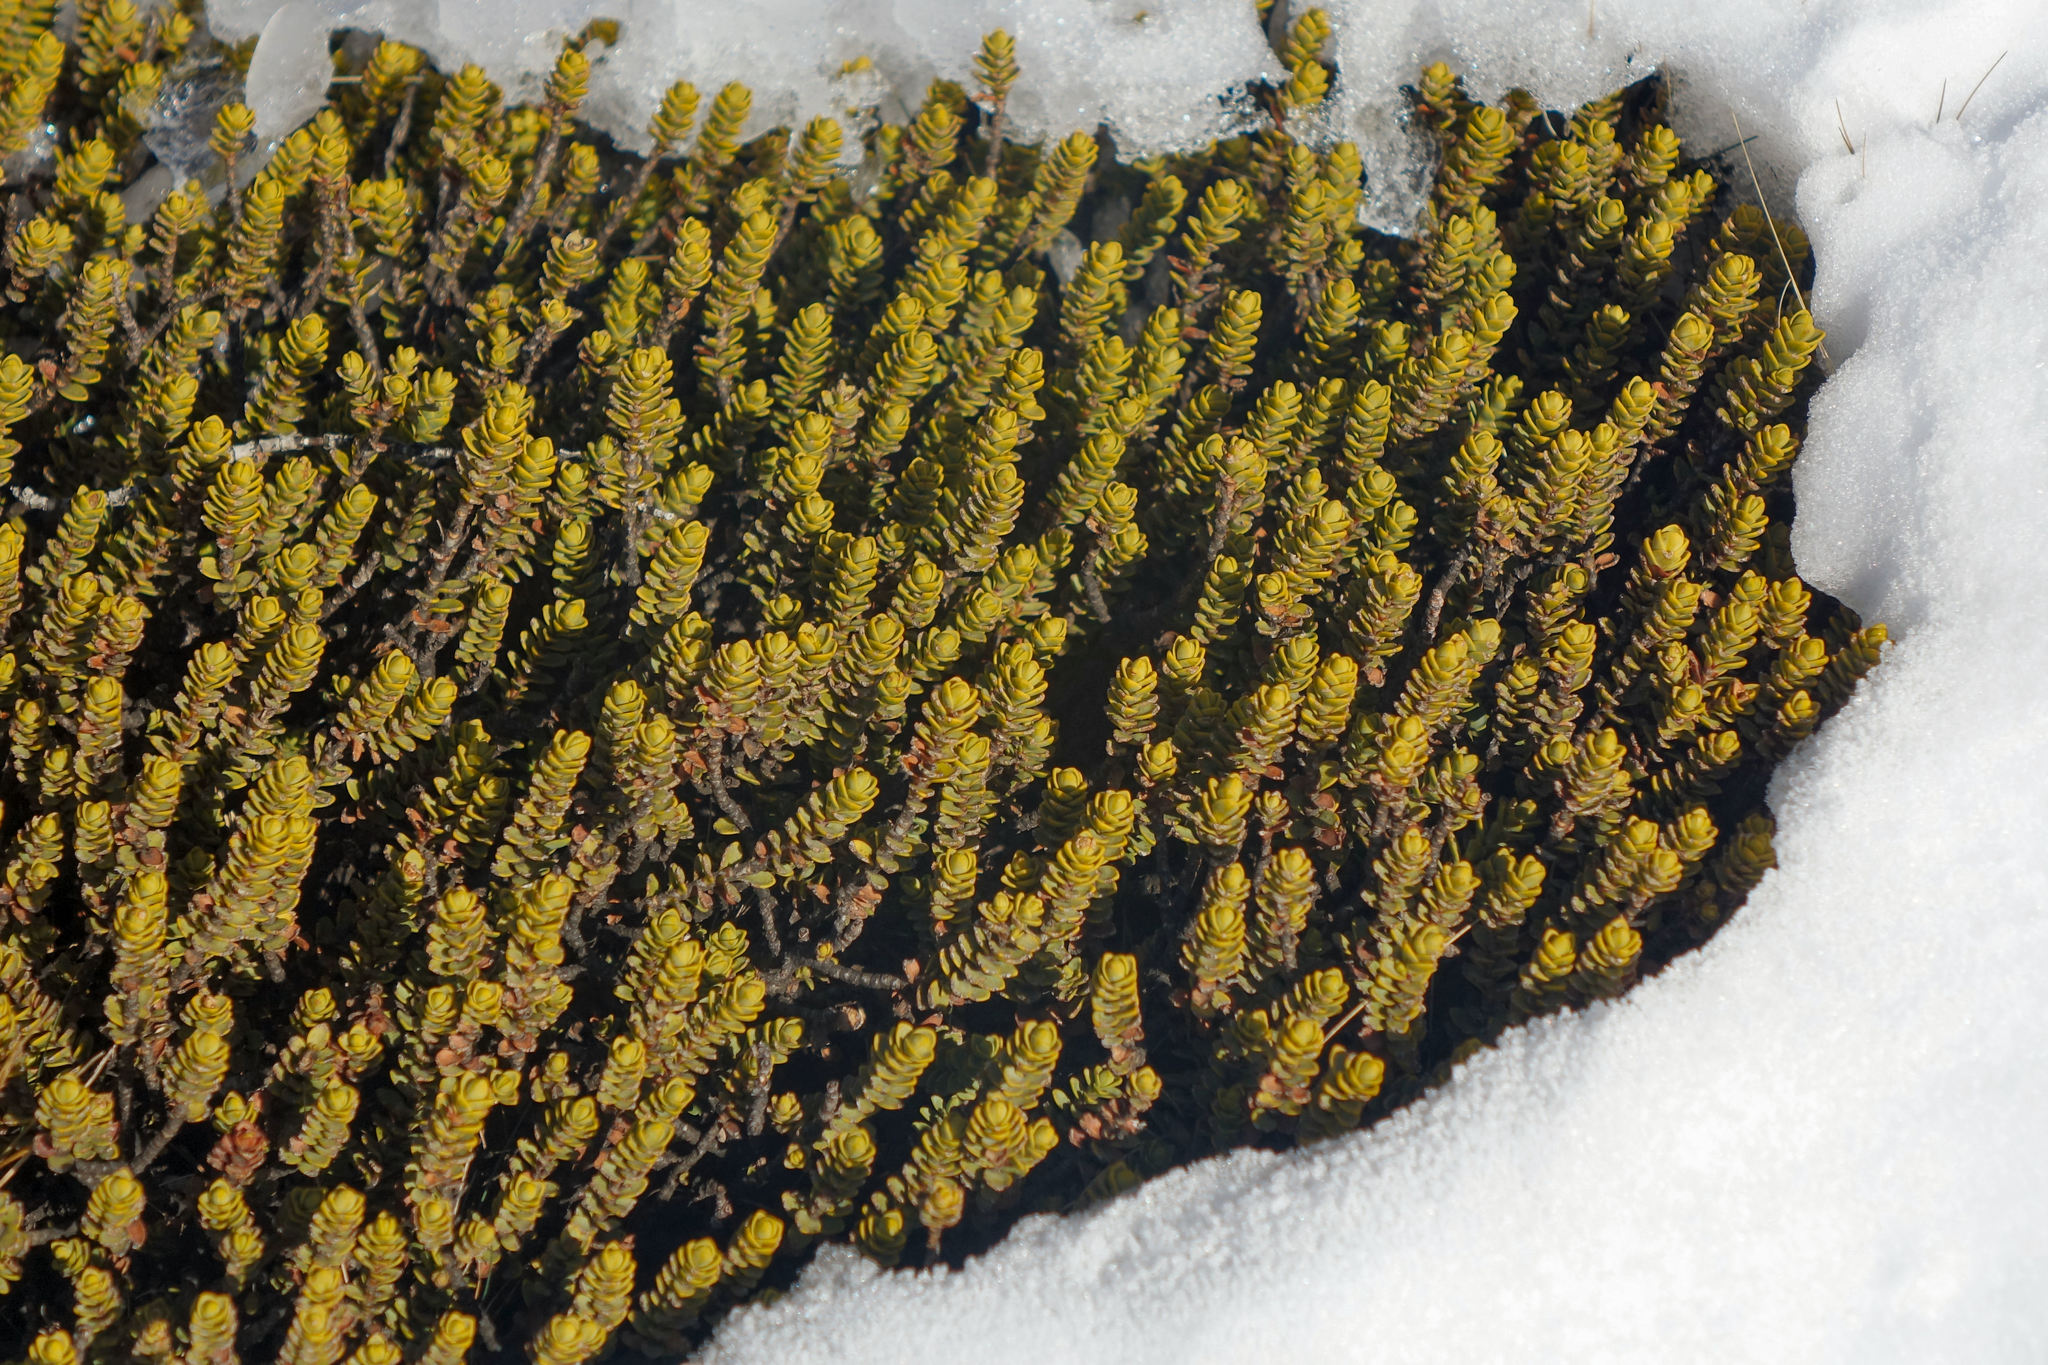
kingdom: Plantae
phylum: Tracheophyta
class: Magnoliopsida
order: Lamiales
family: Plantaginaceae
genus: Veronica
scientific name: Veronica buchananii
